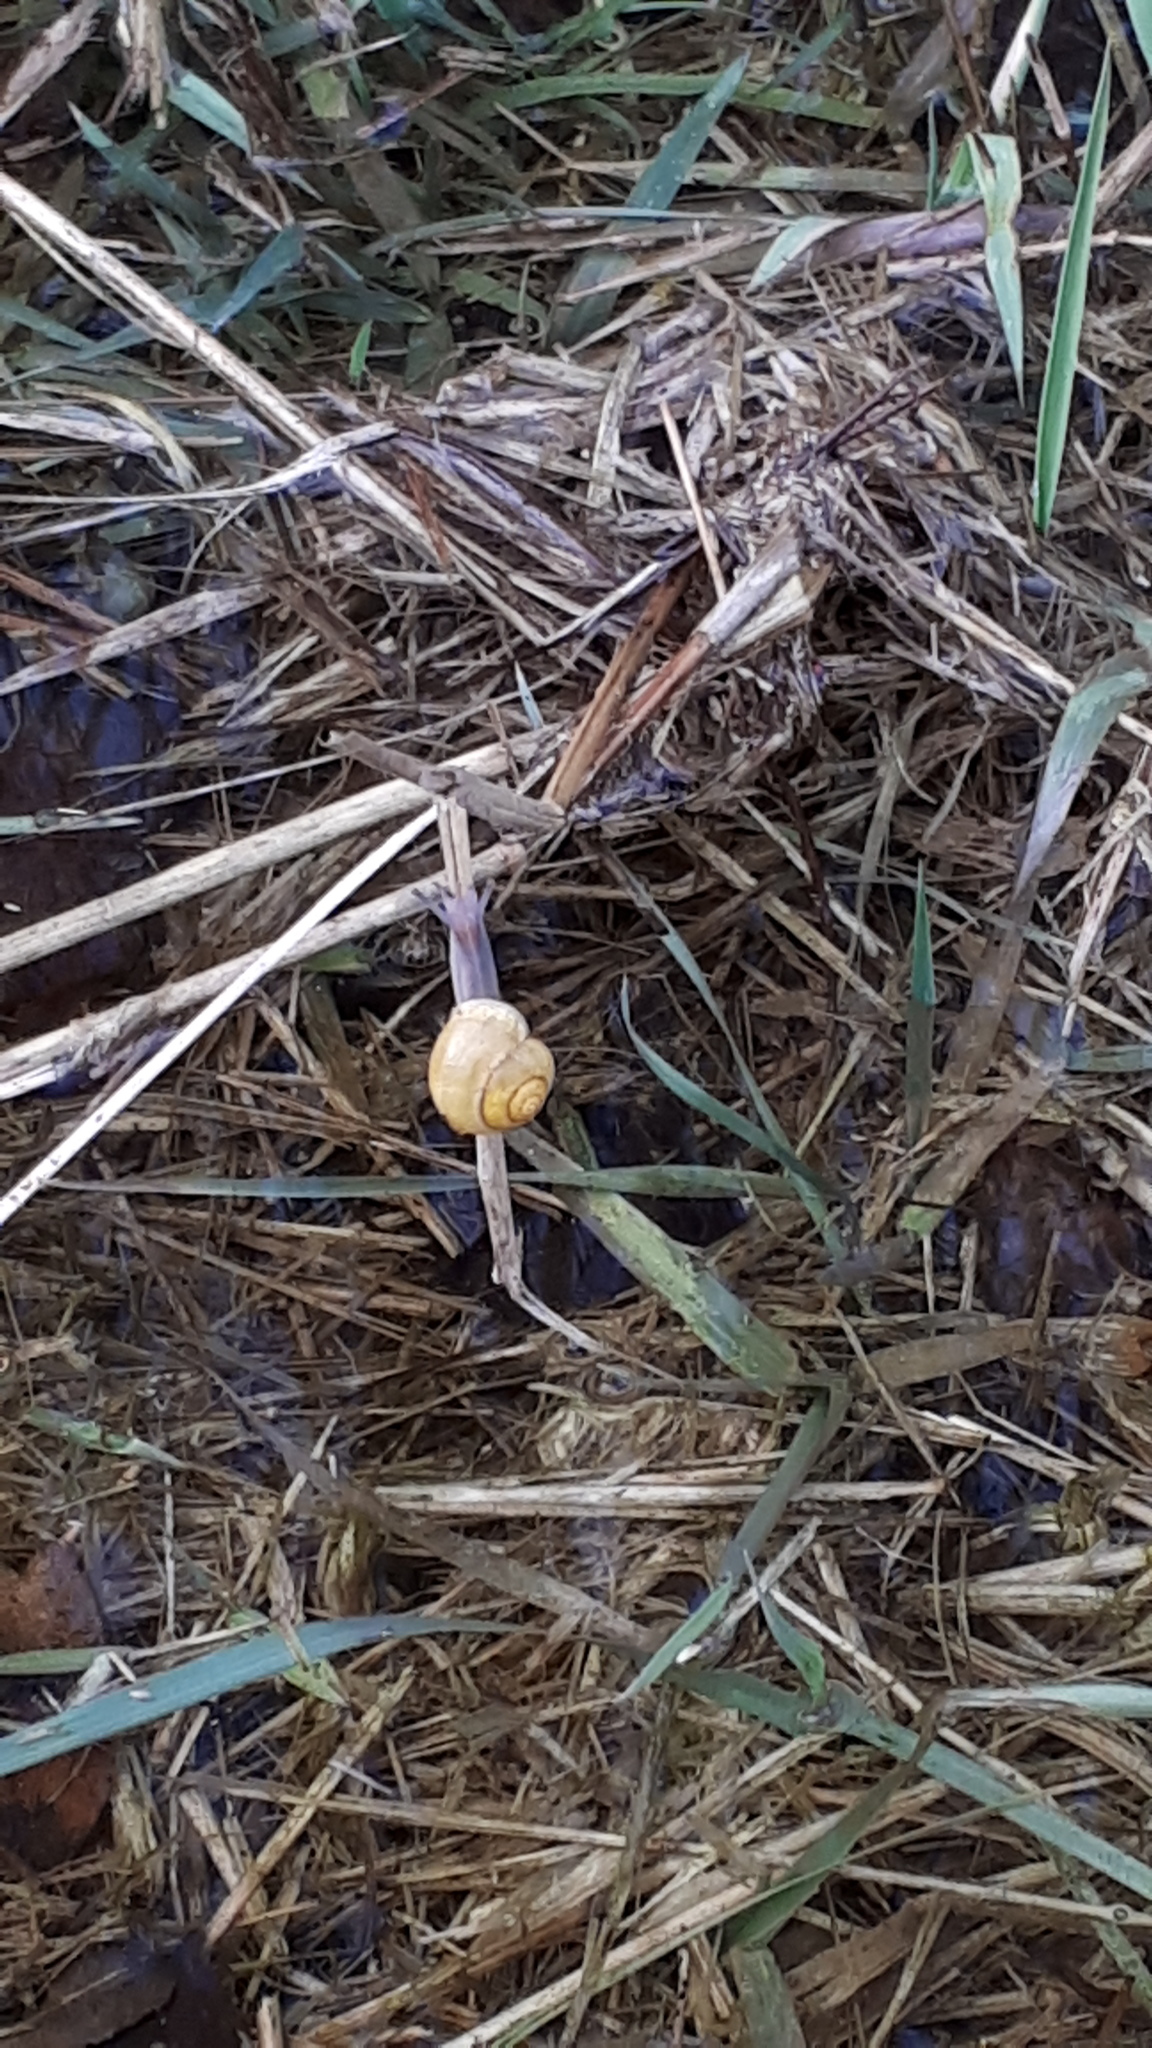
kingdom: Animalia
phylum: Mollusca
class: Gastropoda
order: Stylommatophora
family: Helicidae
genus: Cepaea
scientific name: Cepaea hortensis
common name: White-lip gardensnail
